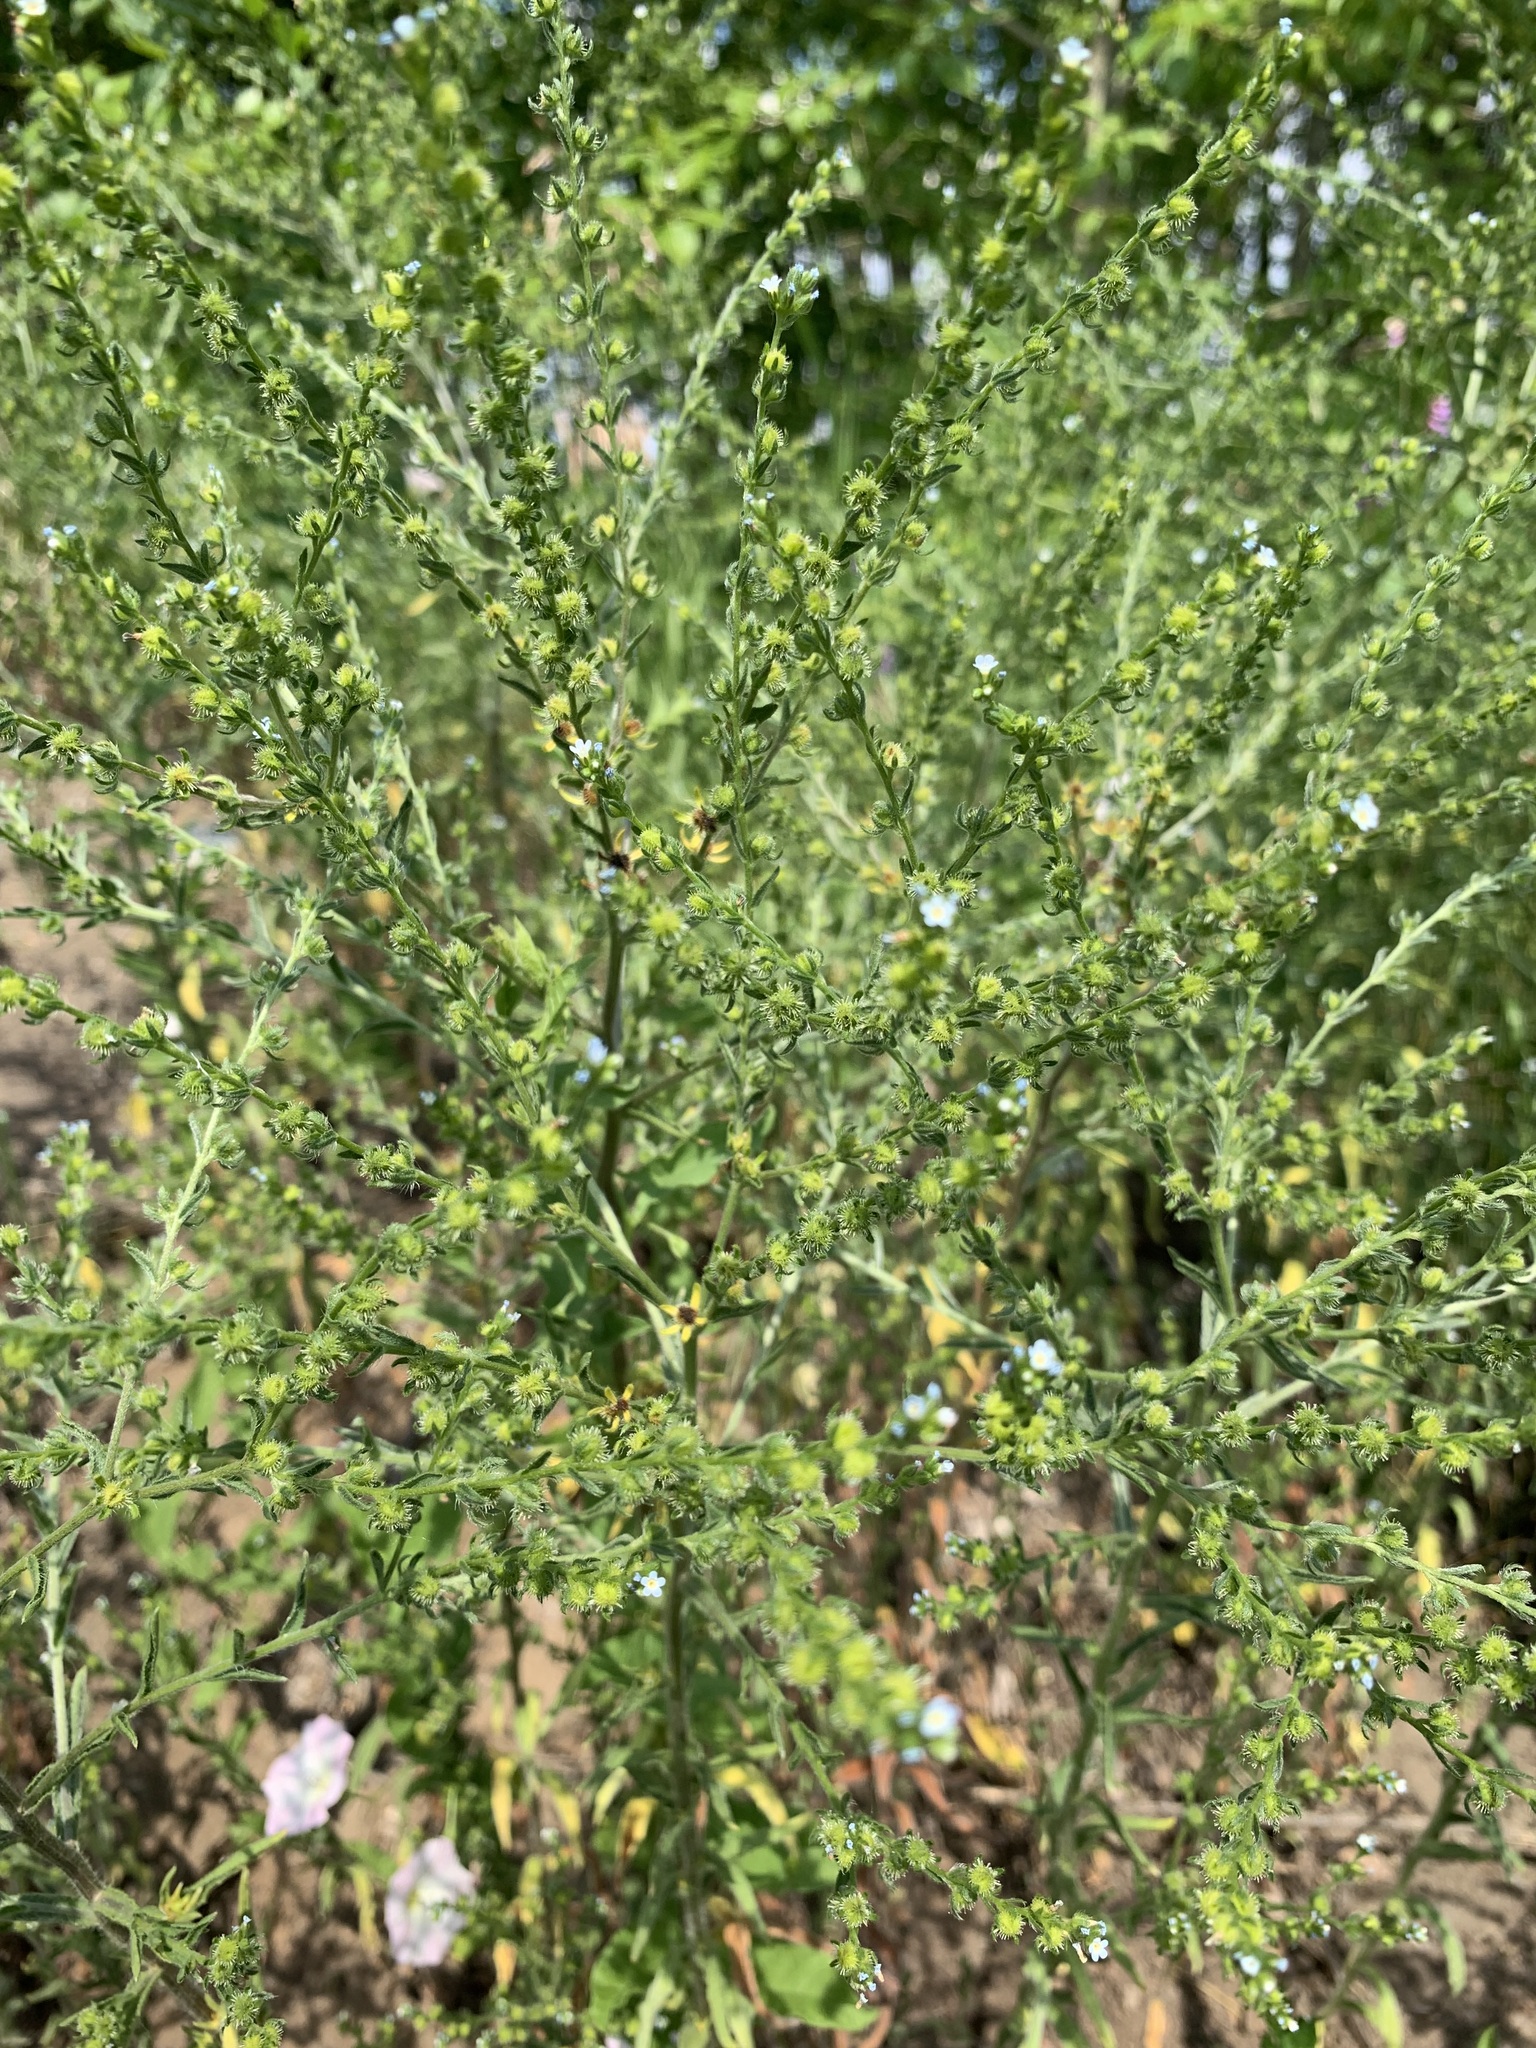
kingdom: Plantae
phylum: Tracheophyta
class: Magnoliopsida
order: Boraginales
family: Boraginaceae
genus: Lappula
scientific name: Lappula squarrosa
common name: European stickseed
